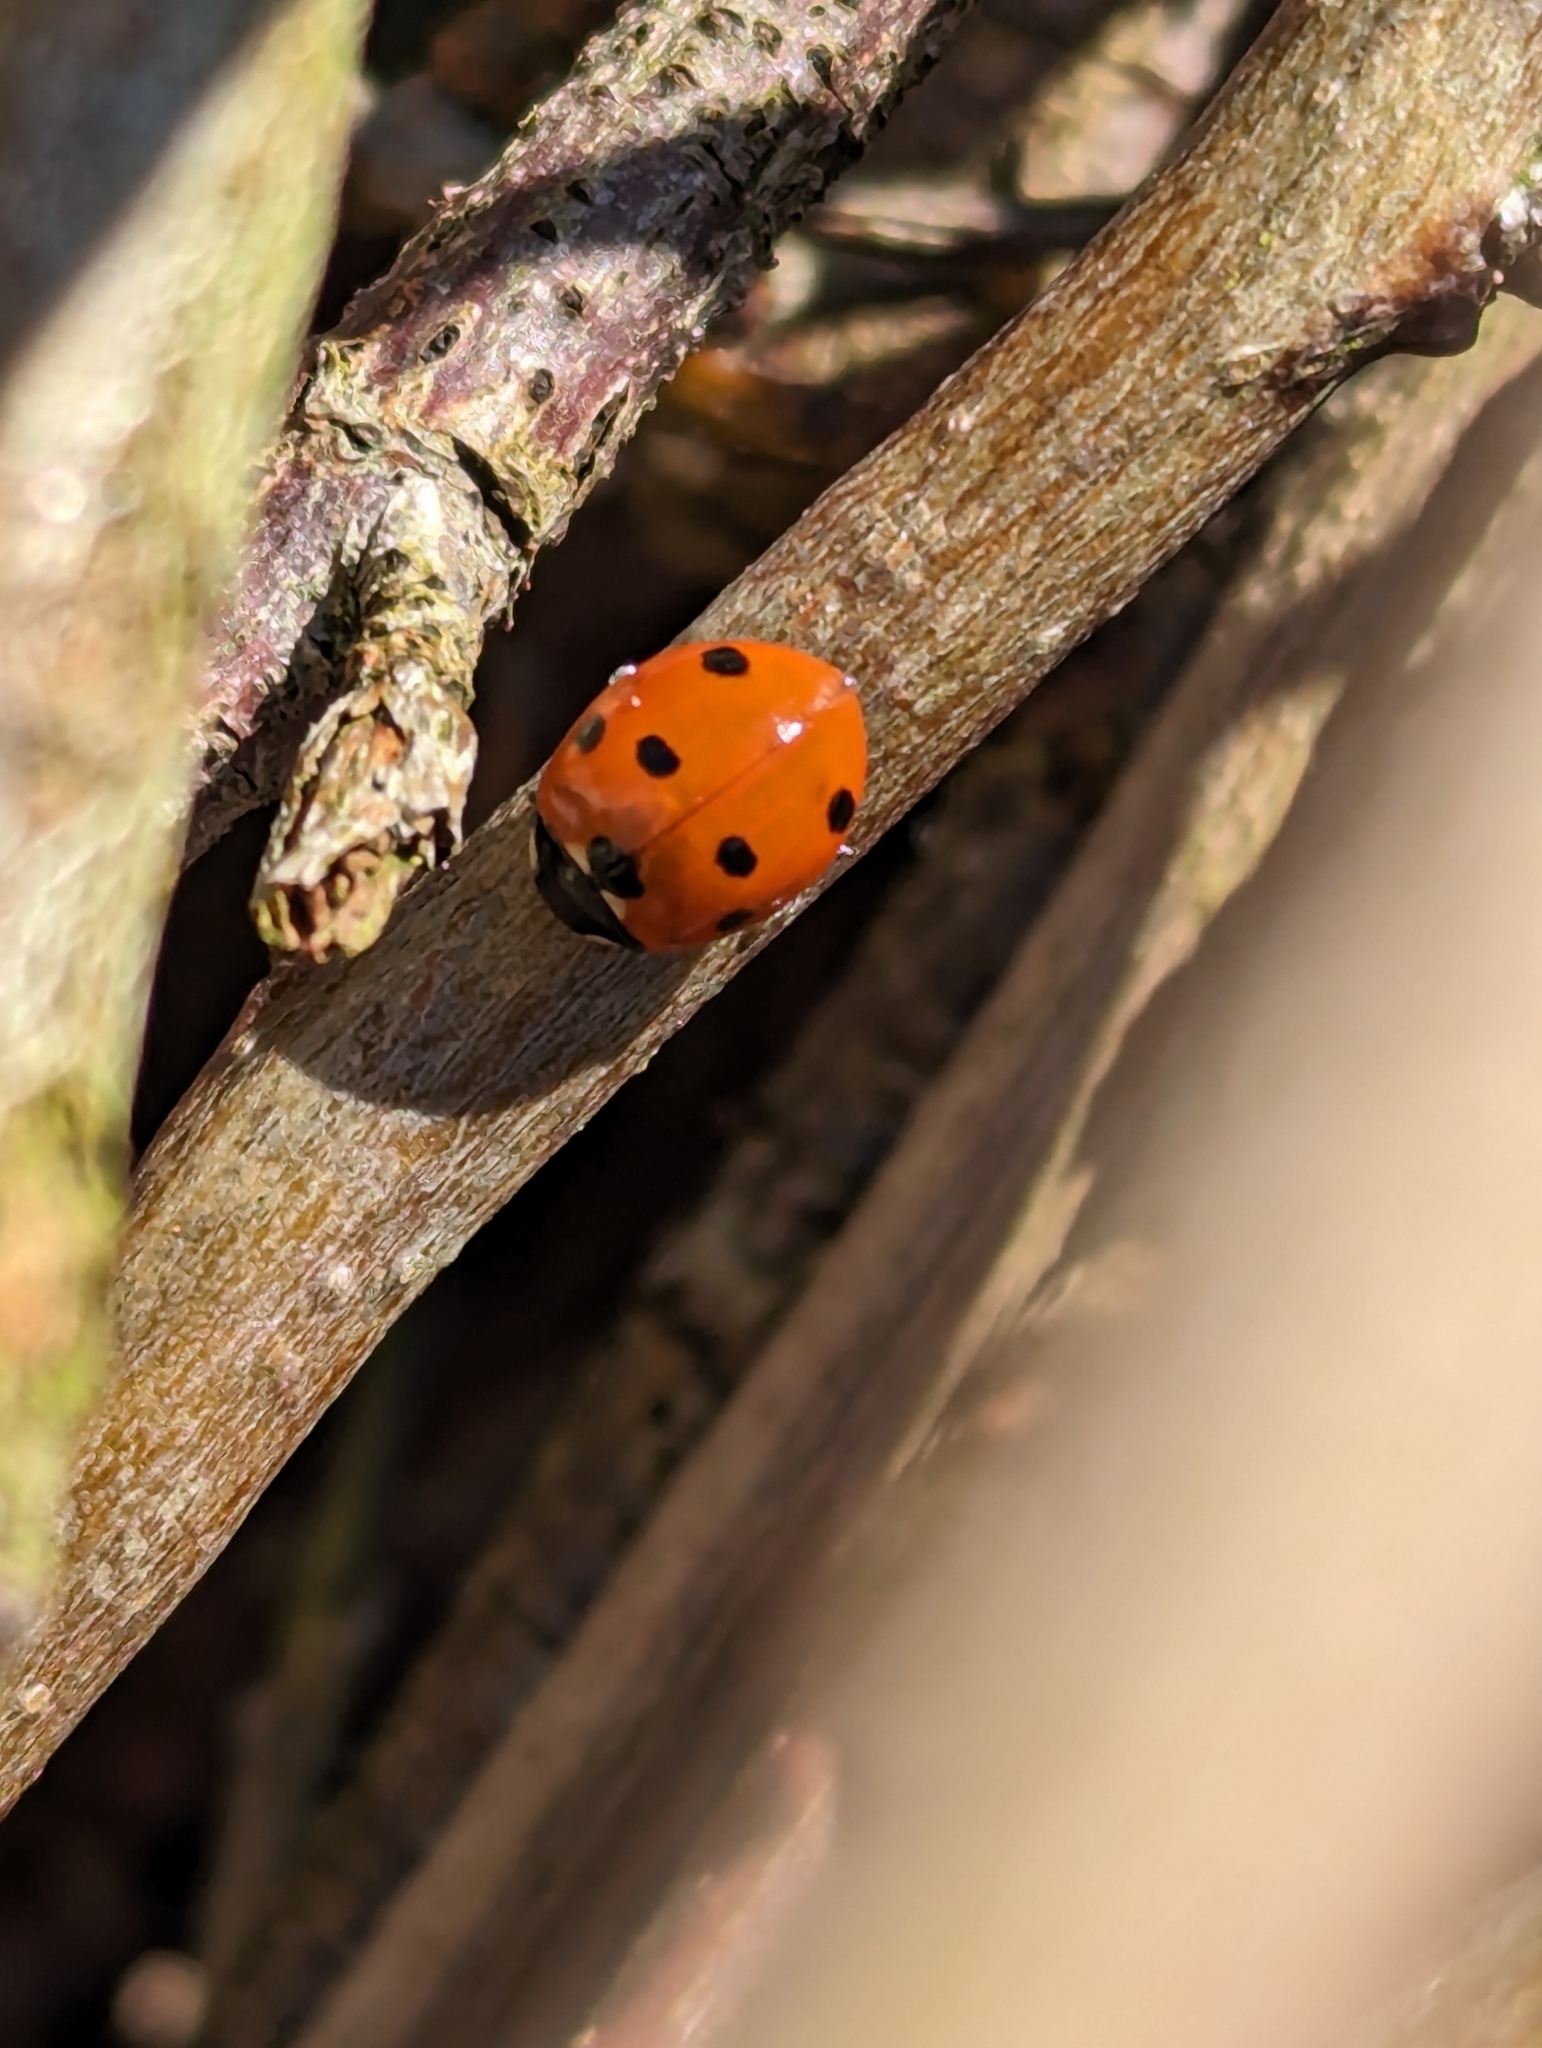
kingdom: Animalia
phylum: Arthropoda
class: Insecta
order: Coleoptera
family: Coccinellidae
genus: Coccinella
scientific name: Coccinella septempunctata
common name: Sevenspotted lady beetle
